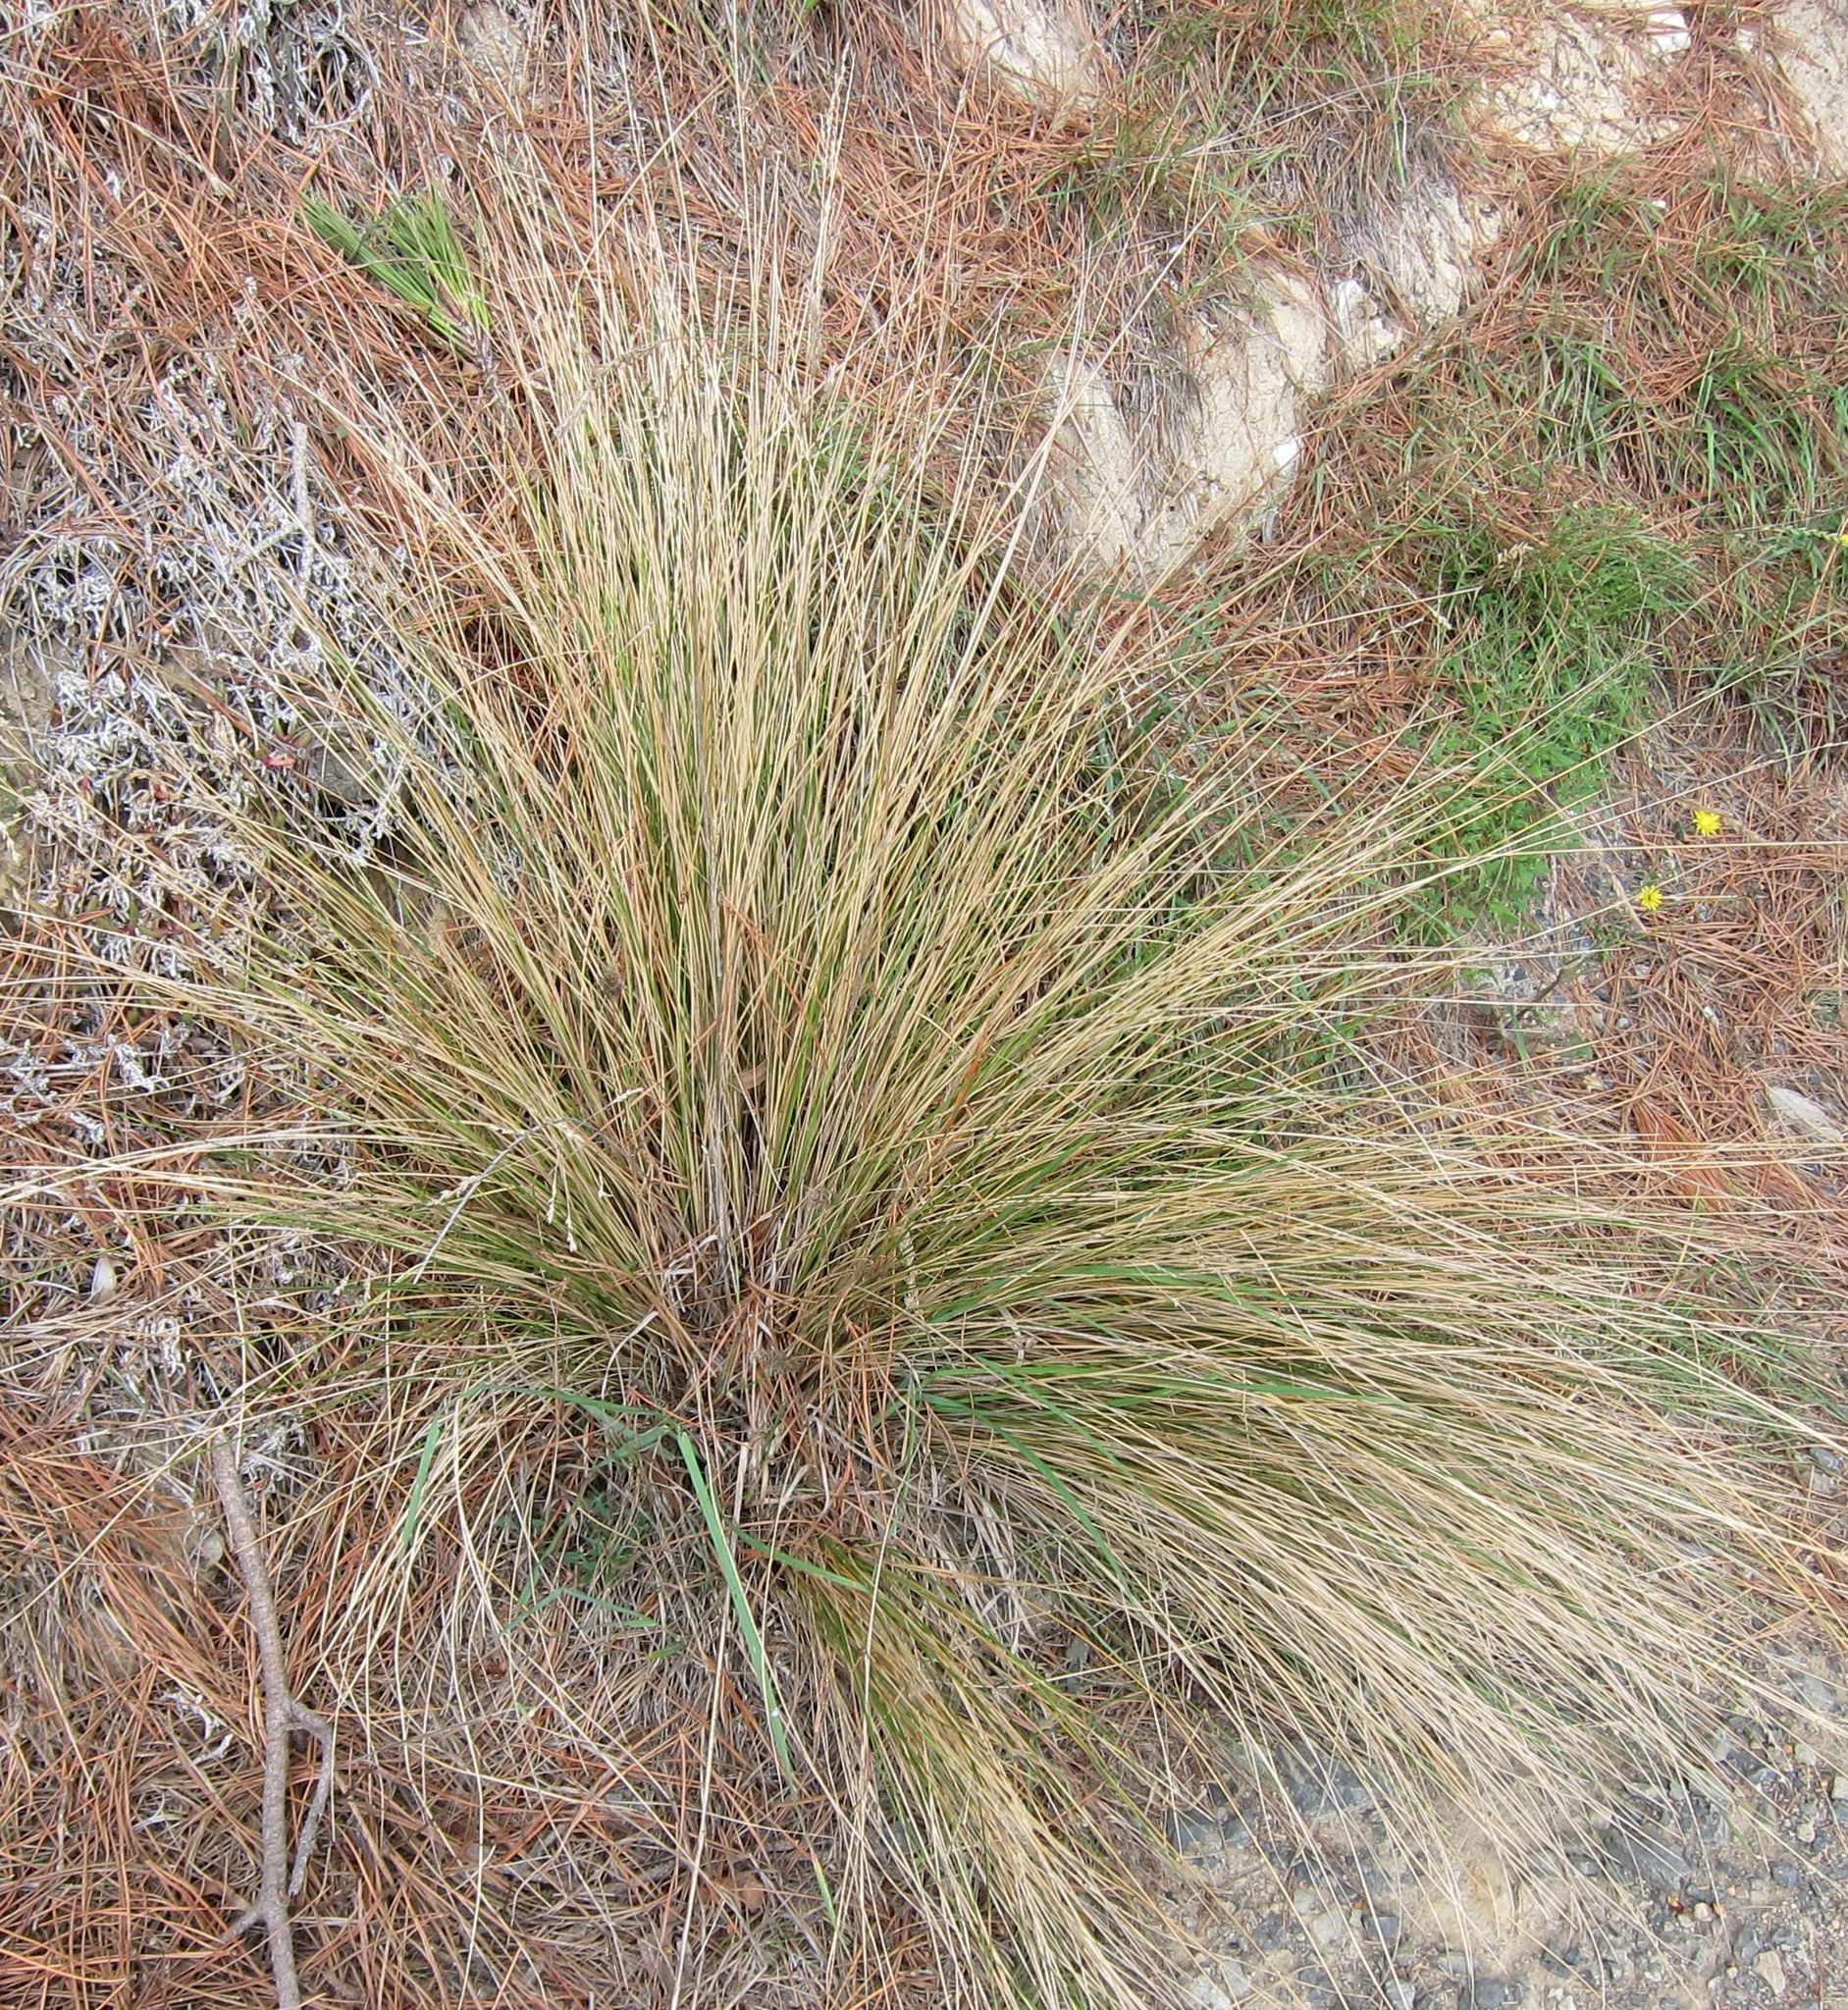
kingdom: Plantae
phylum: Tracheophyta
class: Liliopsida
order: Poales
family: Poaceae
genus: Poa
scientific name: Poa cita
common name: Silver tussock
